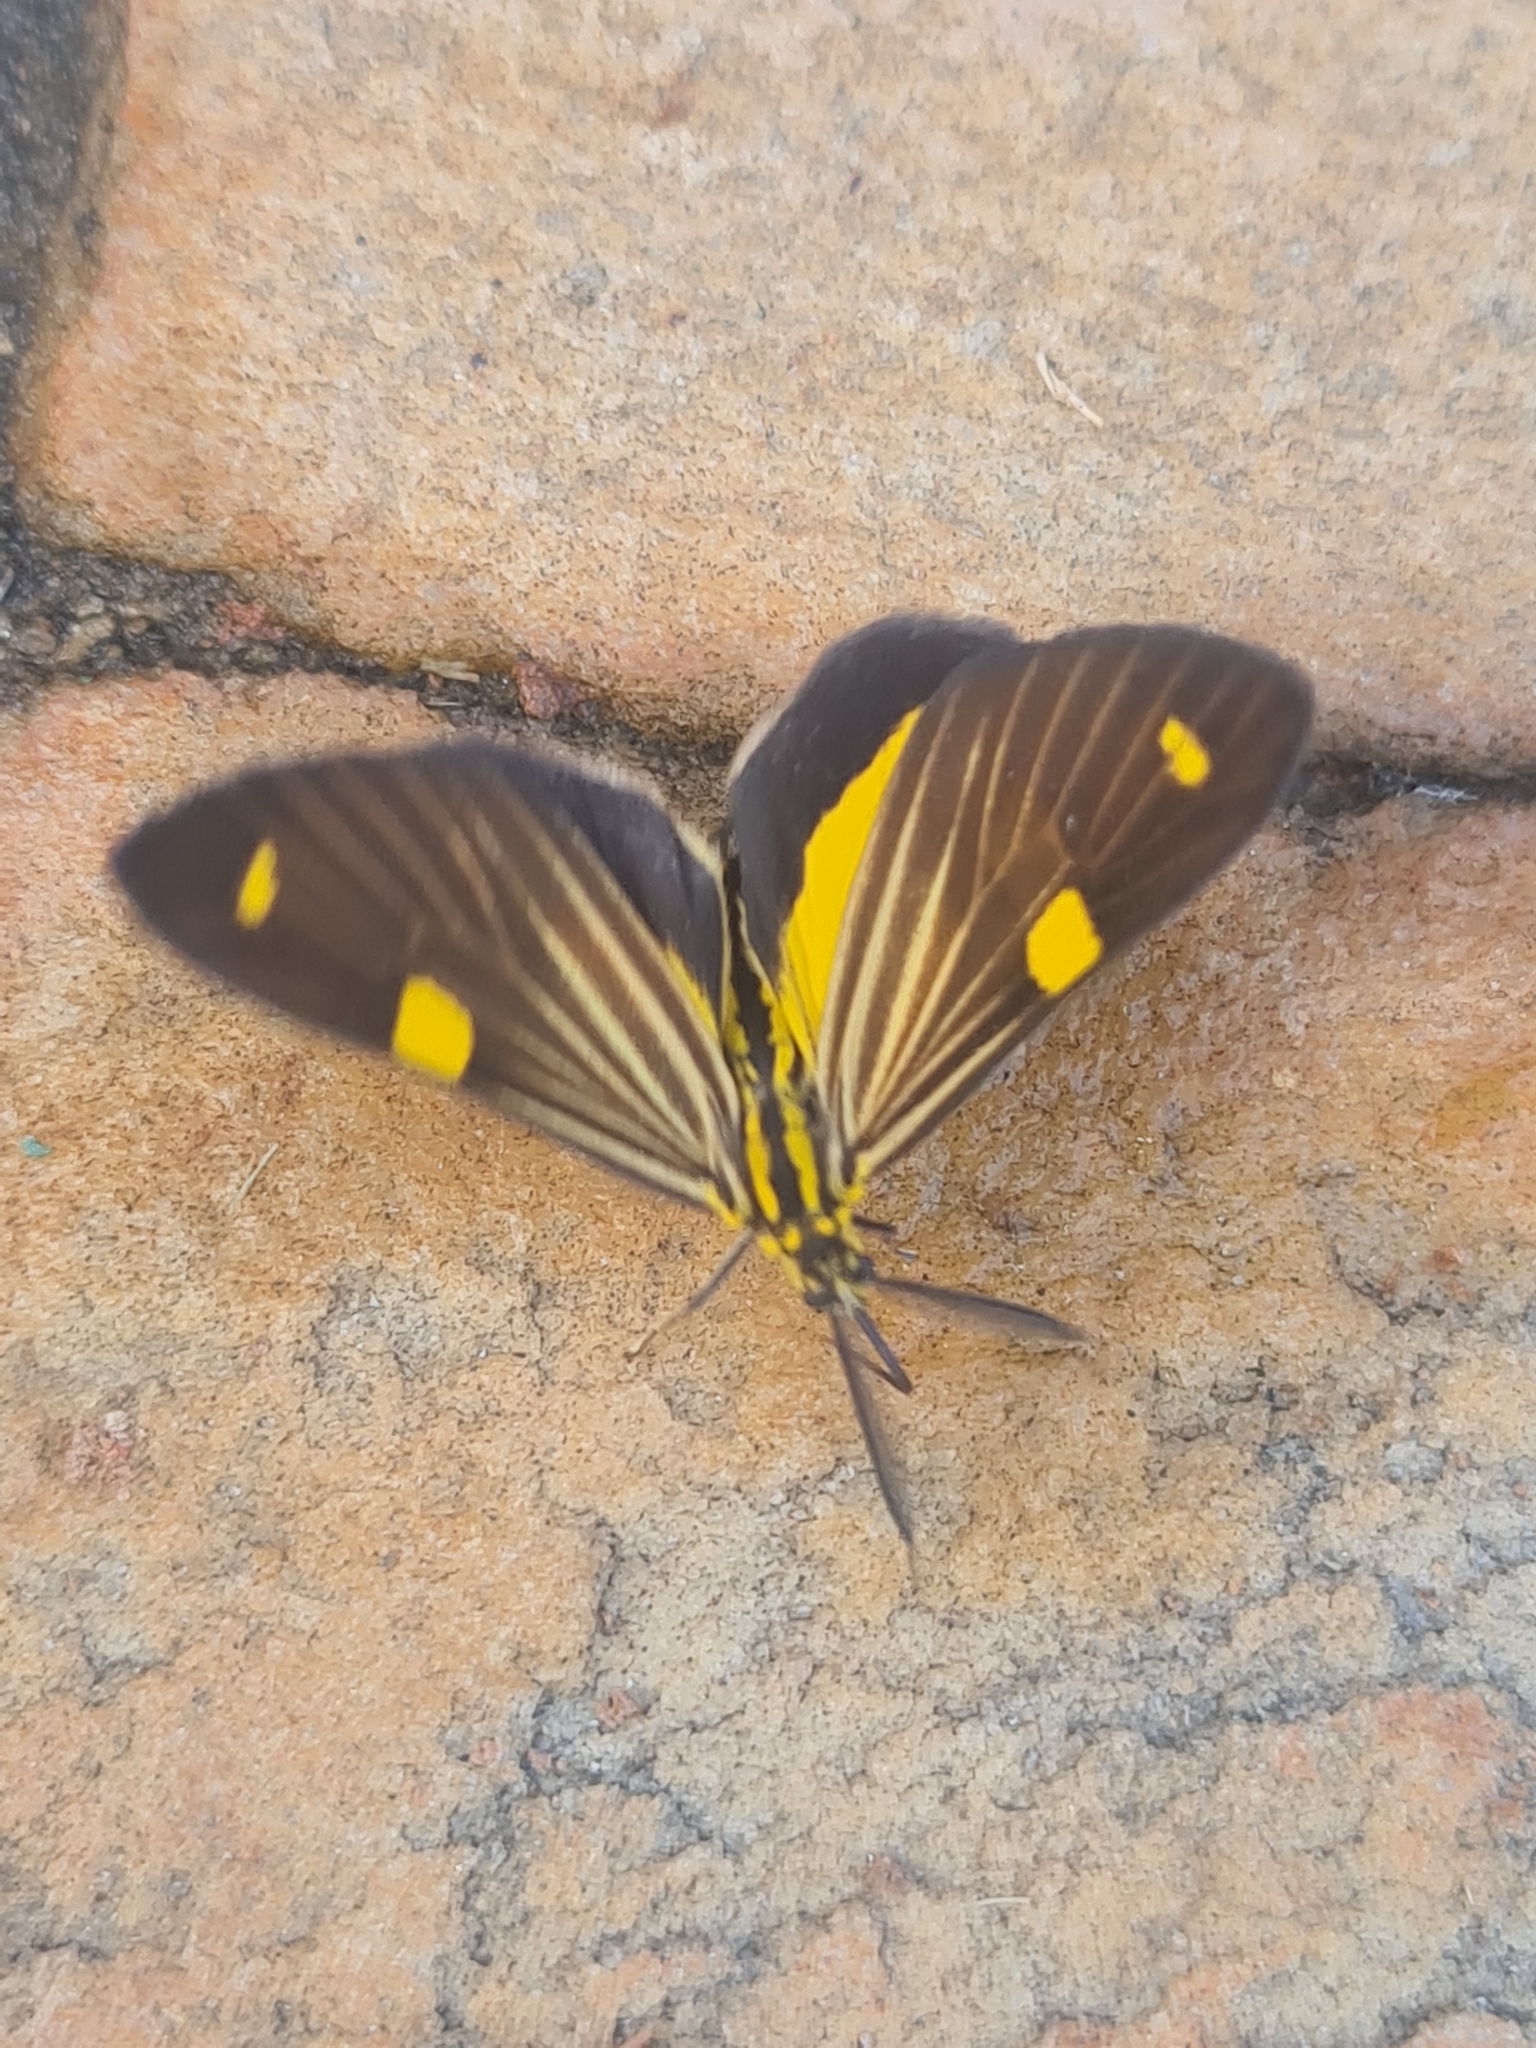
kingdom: Animalia
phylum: Arthropoda
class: Insecta
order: Lepidoptera
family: Notodontidae
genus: Phaeochlaena
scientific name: Phaeochlaena
